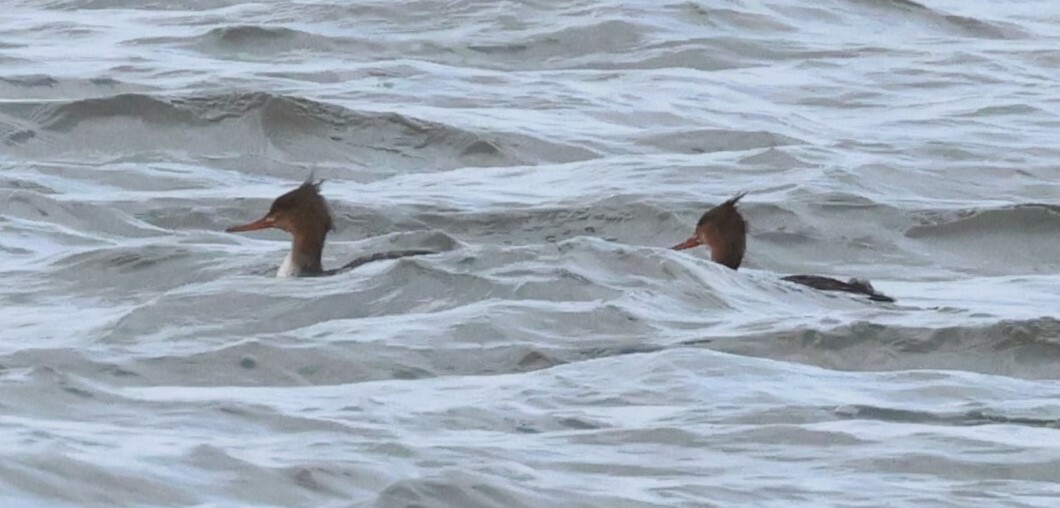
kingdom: Animalia
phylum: Chordata
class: Aves
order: Anseriformes
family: Anatidae
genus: Mergus
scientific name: Mergus serrator
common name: Red-breasted merganser
